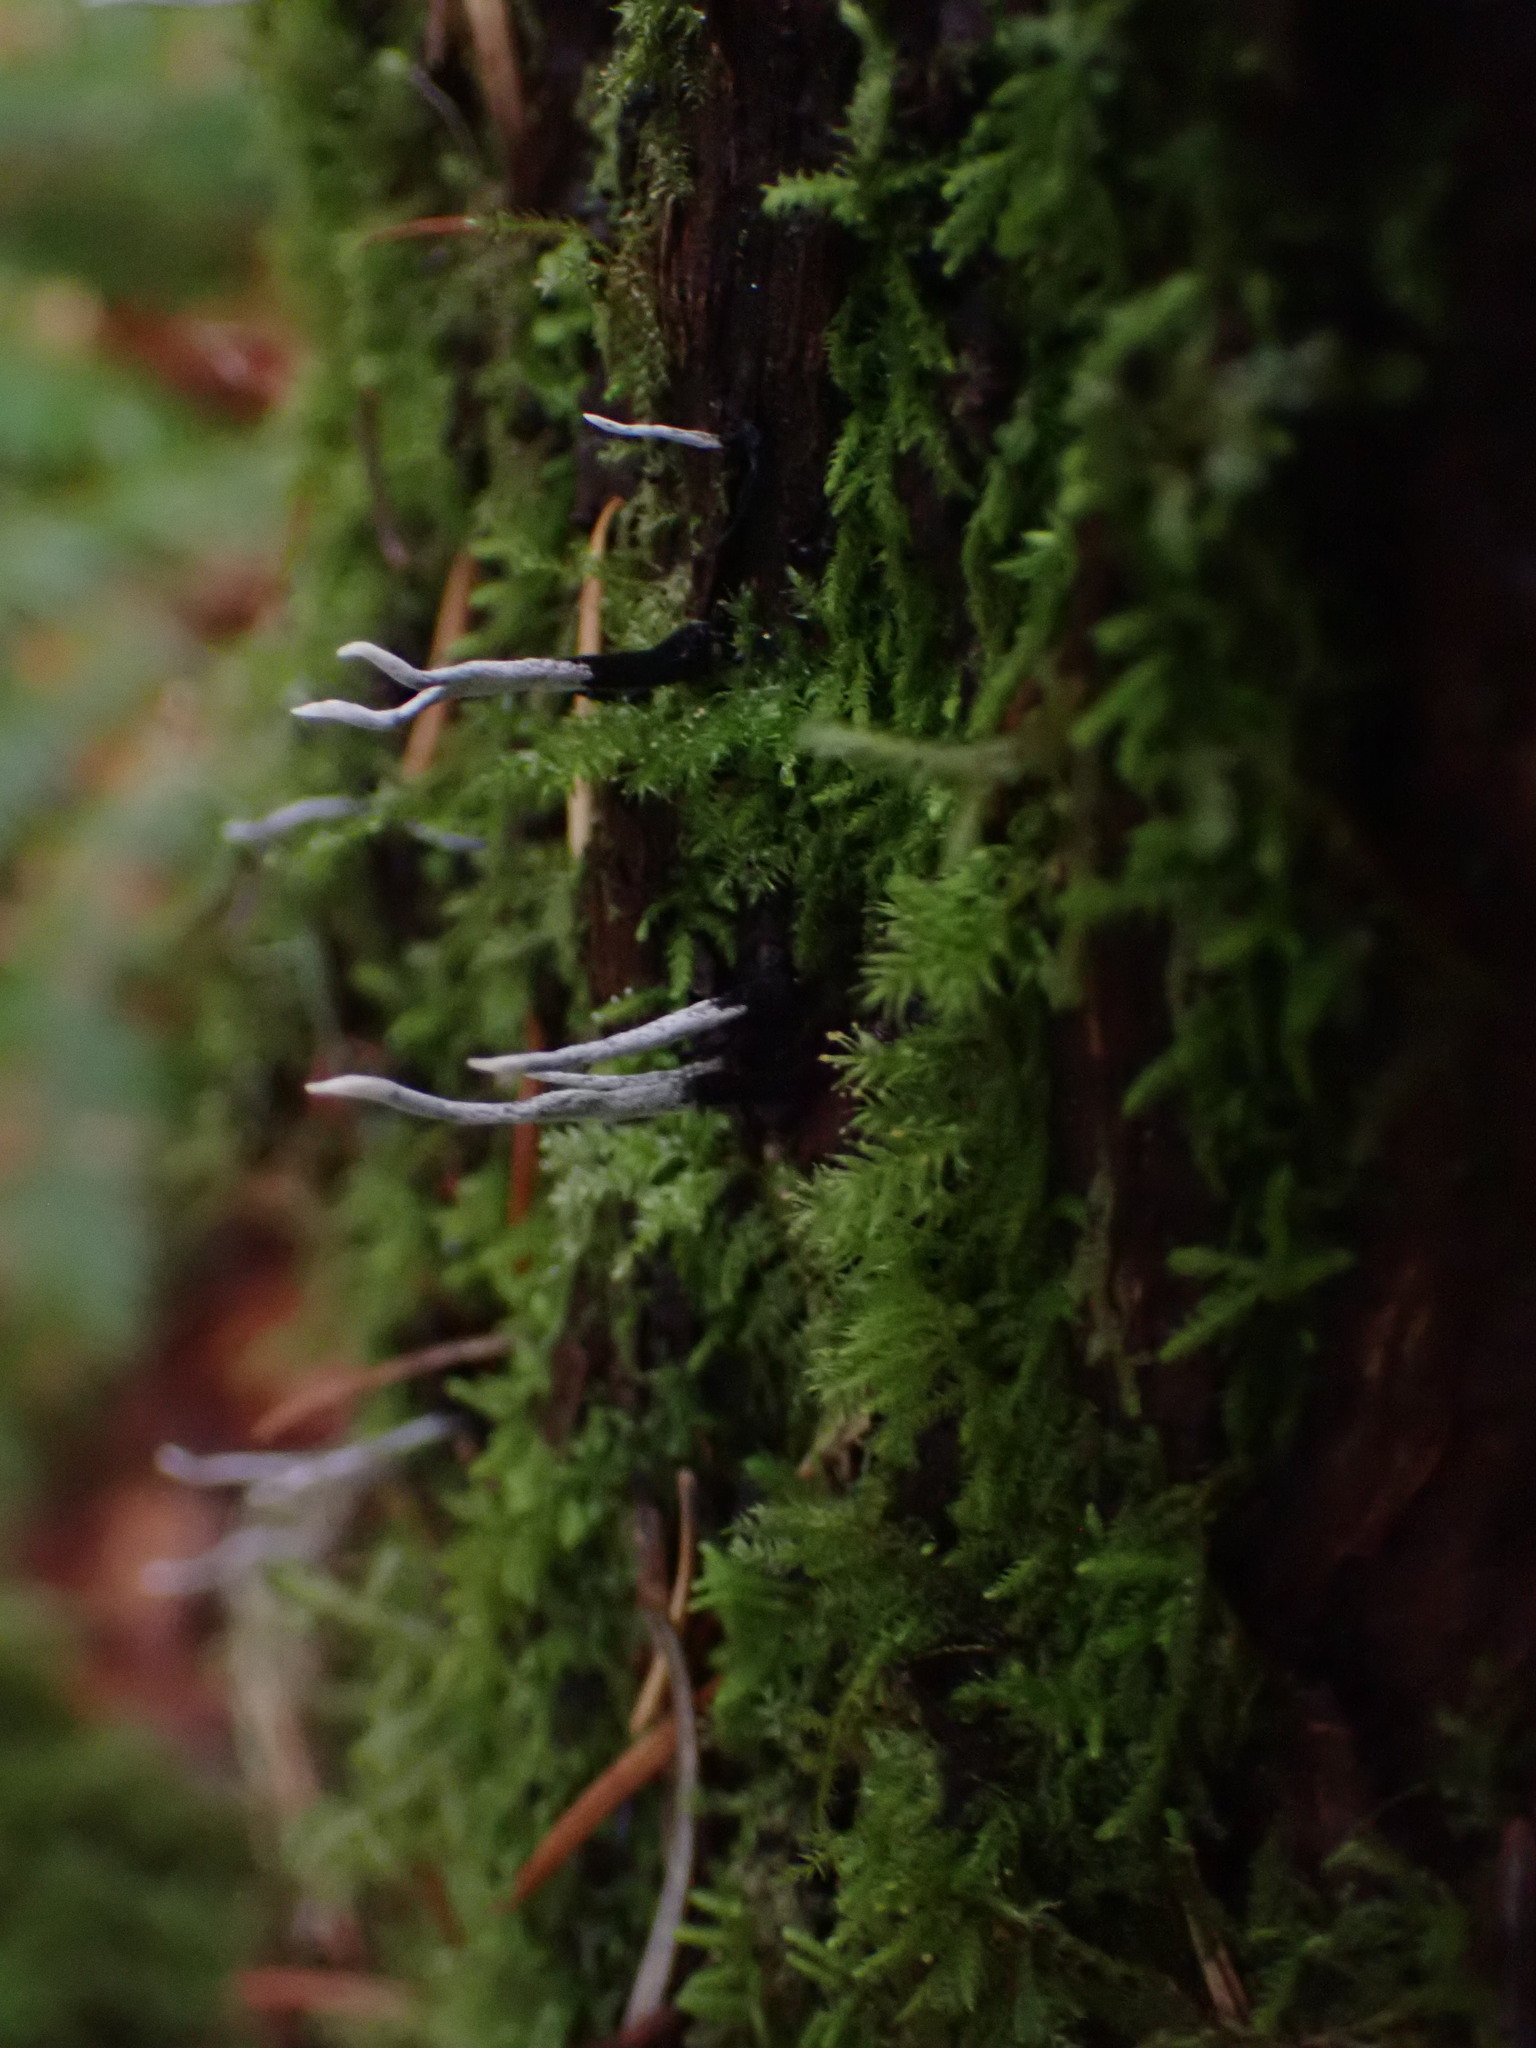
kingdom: Fungi
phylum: Ascomycota
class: Sordariomycetes
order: Xylariales
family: Xylariaceae
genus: Xylaria
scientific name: Xylaria hypoxylon
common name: Candle-snuff fungus
